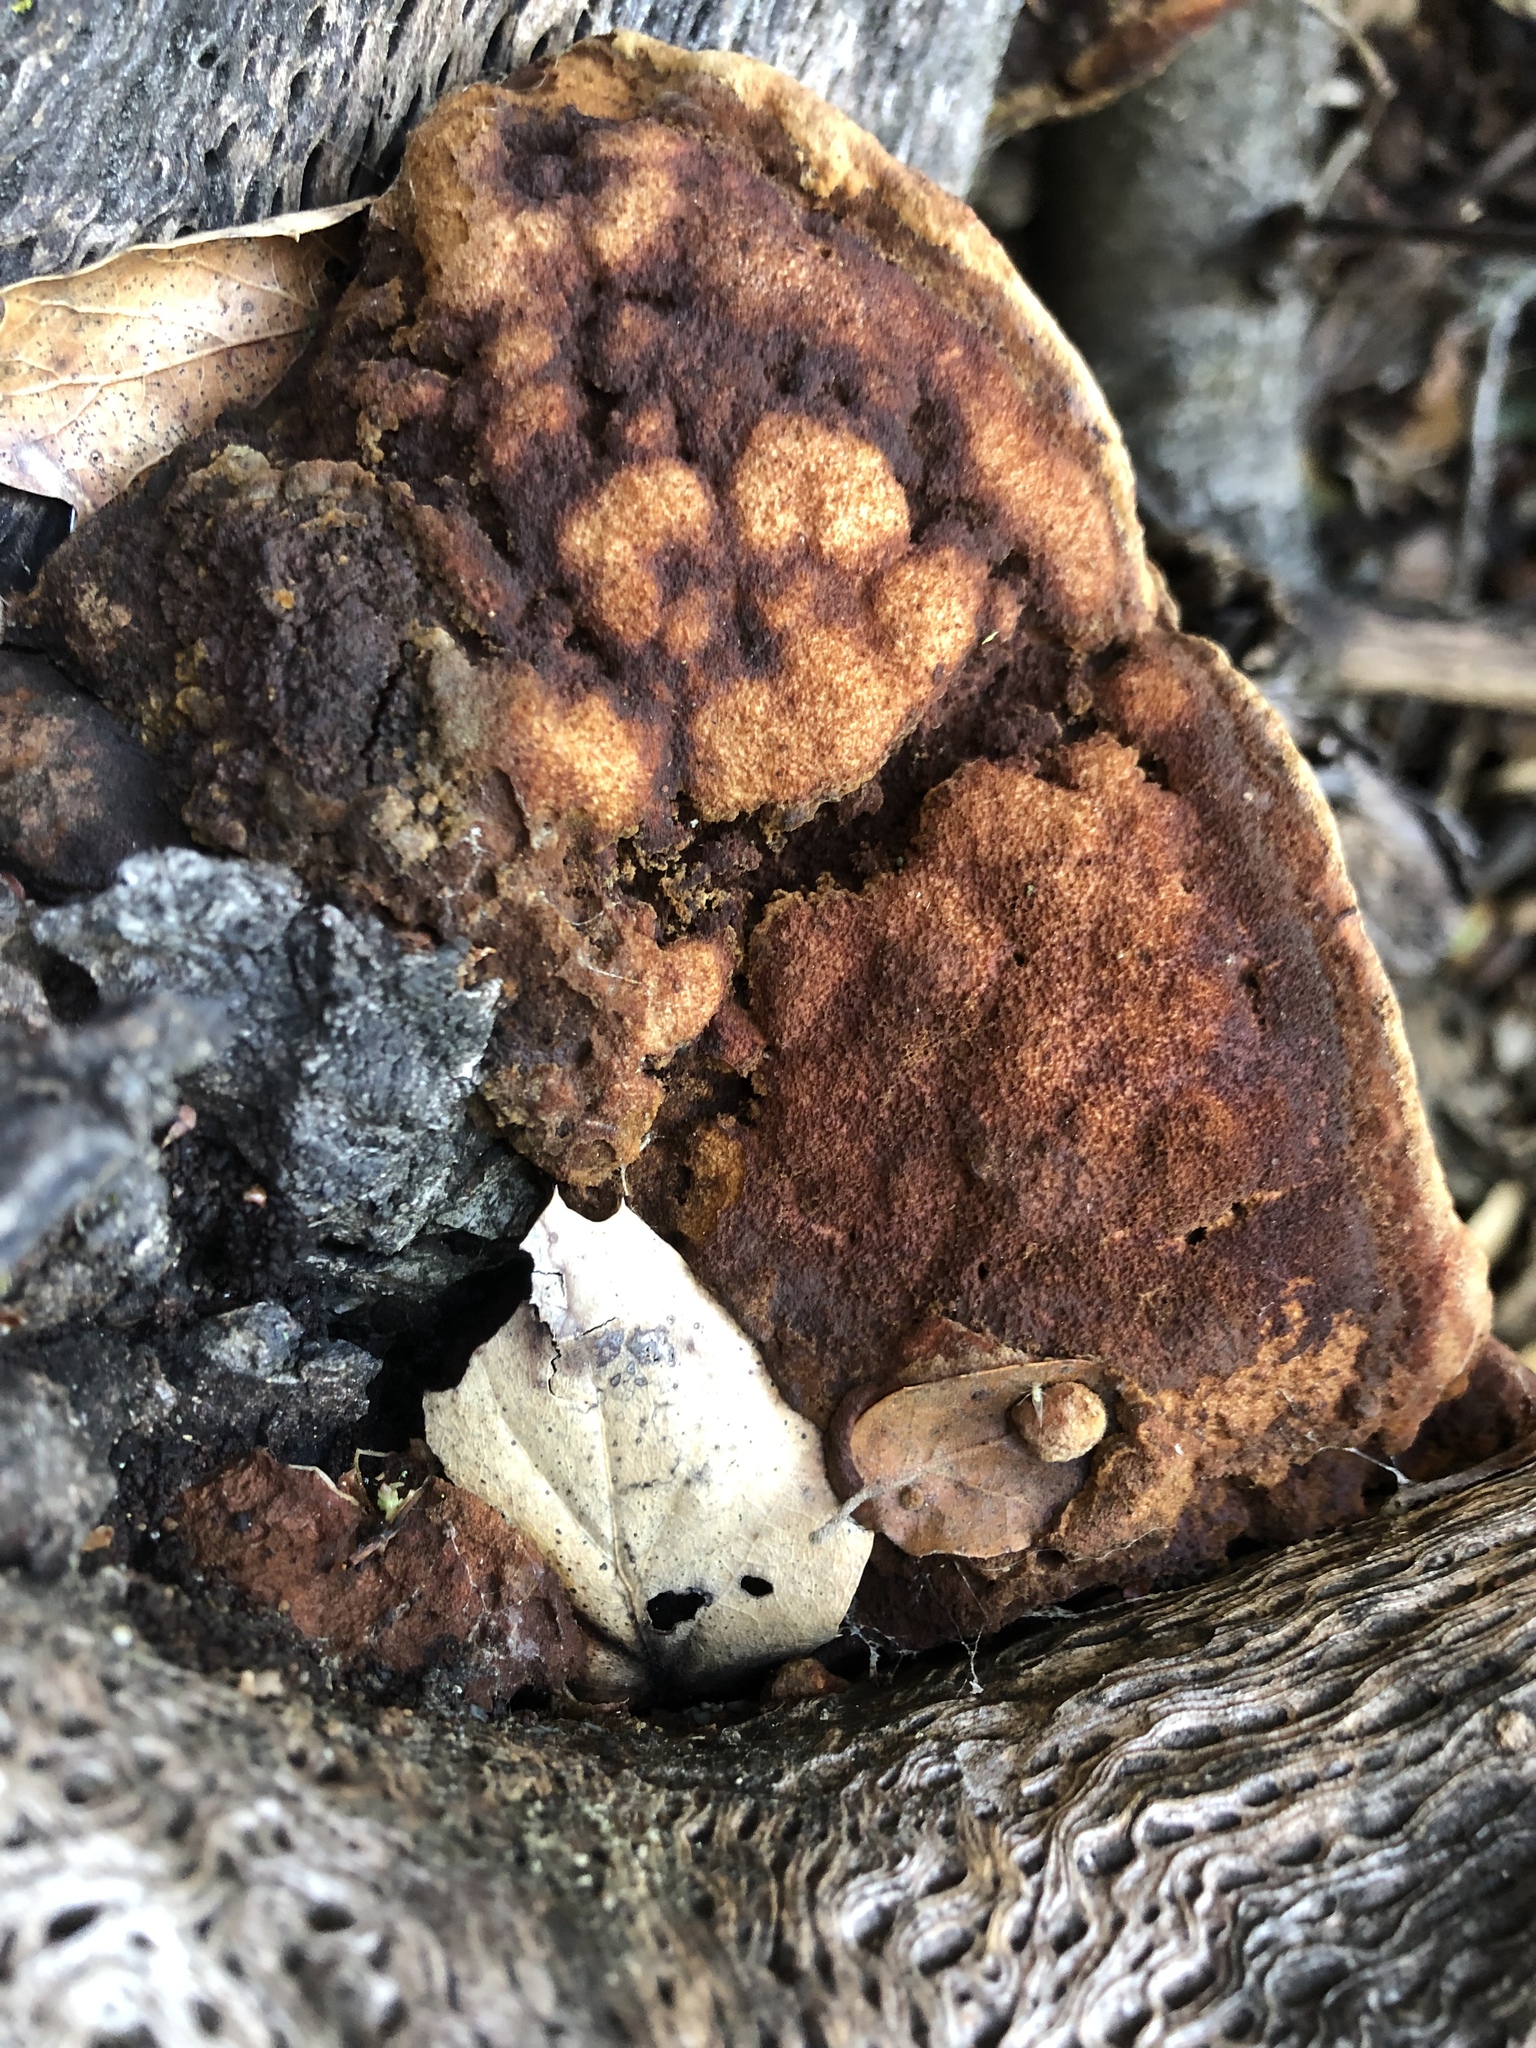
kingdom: Fungi
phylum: Basidiomycota
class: Agaricomycetes
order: Hymenochaetales
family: Hymenochaetaceae
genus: Phellinus
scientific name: Phellinus gilvus
